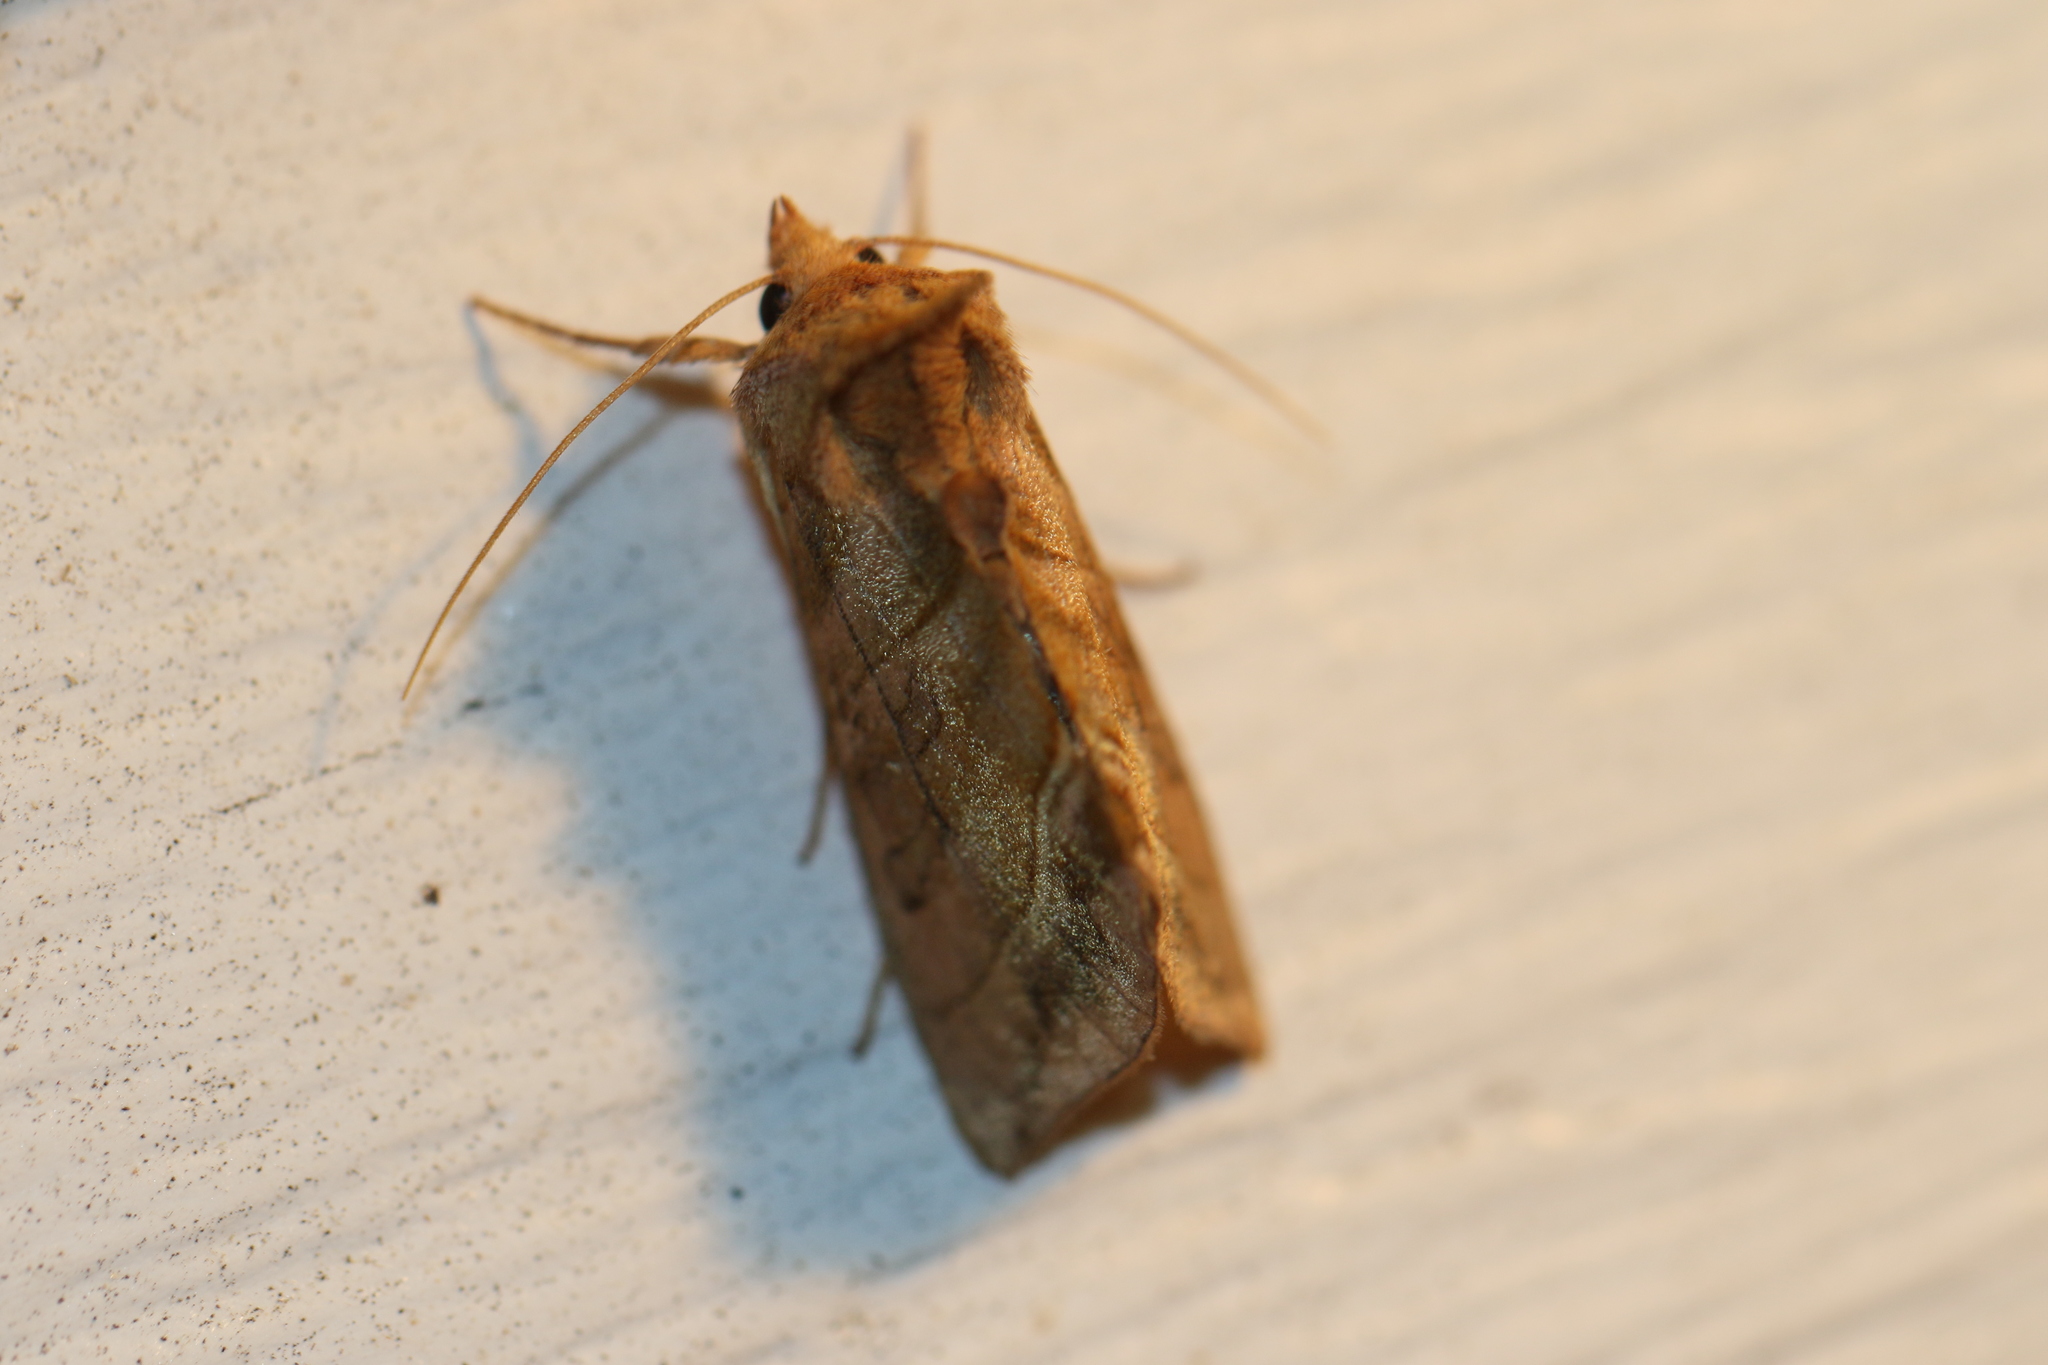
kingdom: Animalia
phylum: Arthropoda
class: Insecta
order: Lepidoptera
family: Noctuidae
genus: Diachrysia
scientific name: Diachrysia aereoides
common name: Dark-spotted looper moth
